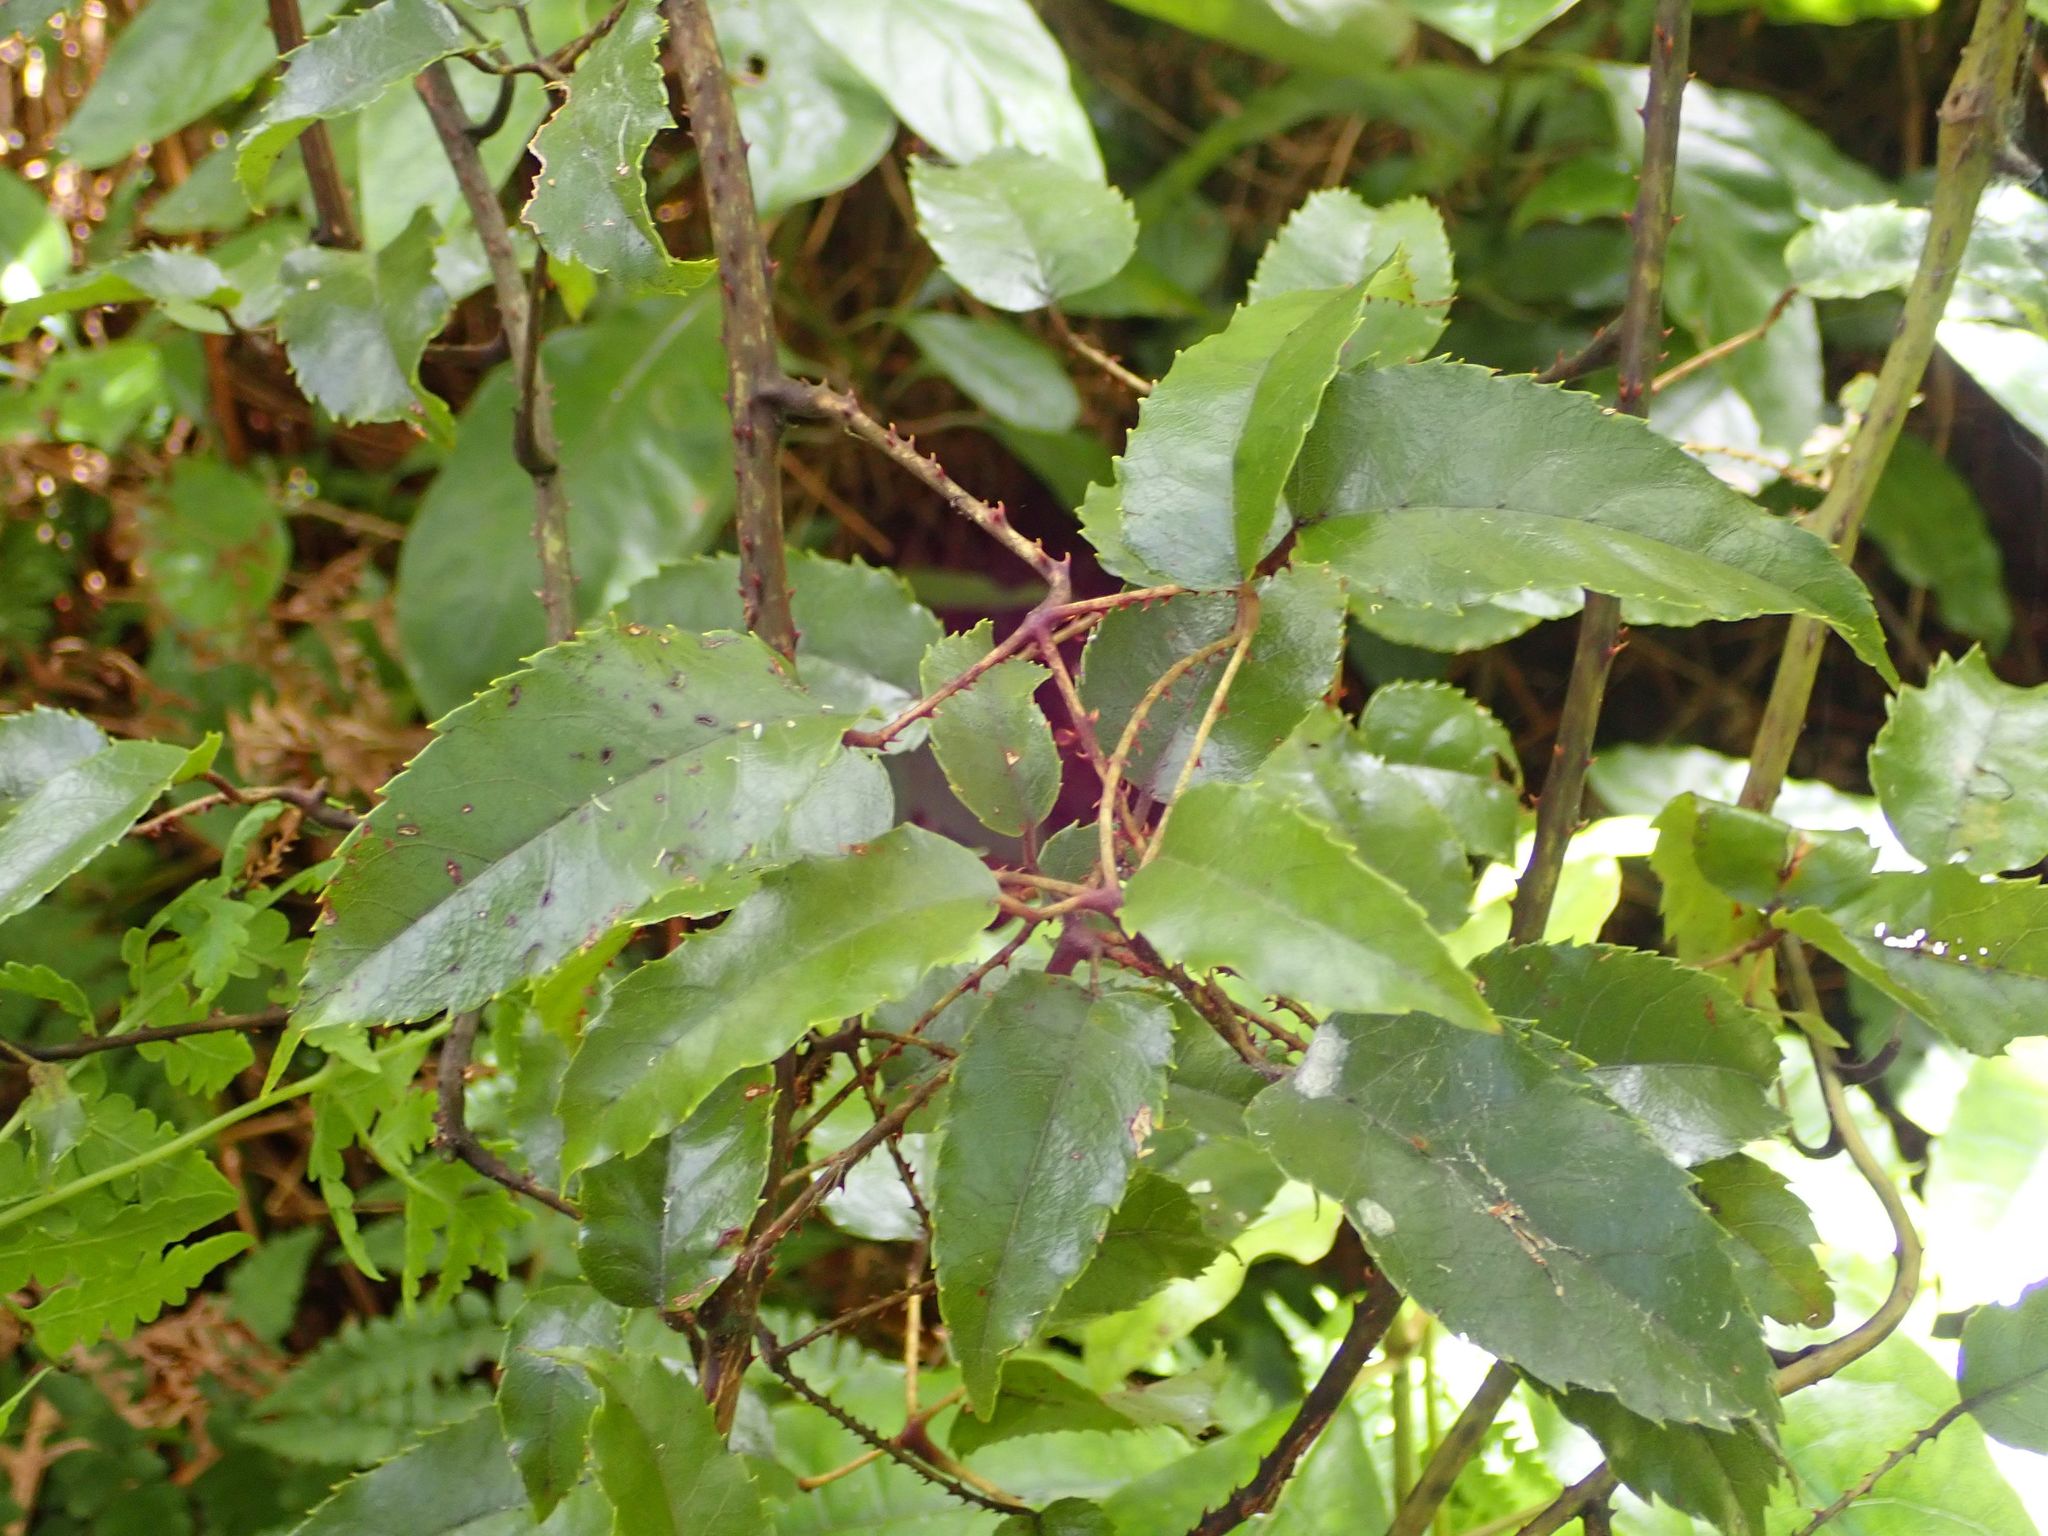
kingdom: Plantae
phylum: Tracheophyta
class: Magnoliopsida
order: Rosales
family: Rosaceae
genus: Rubus
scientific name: Rubus cissoides
